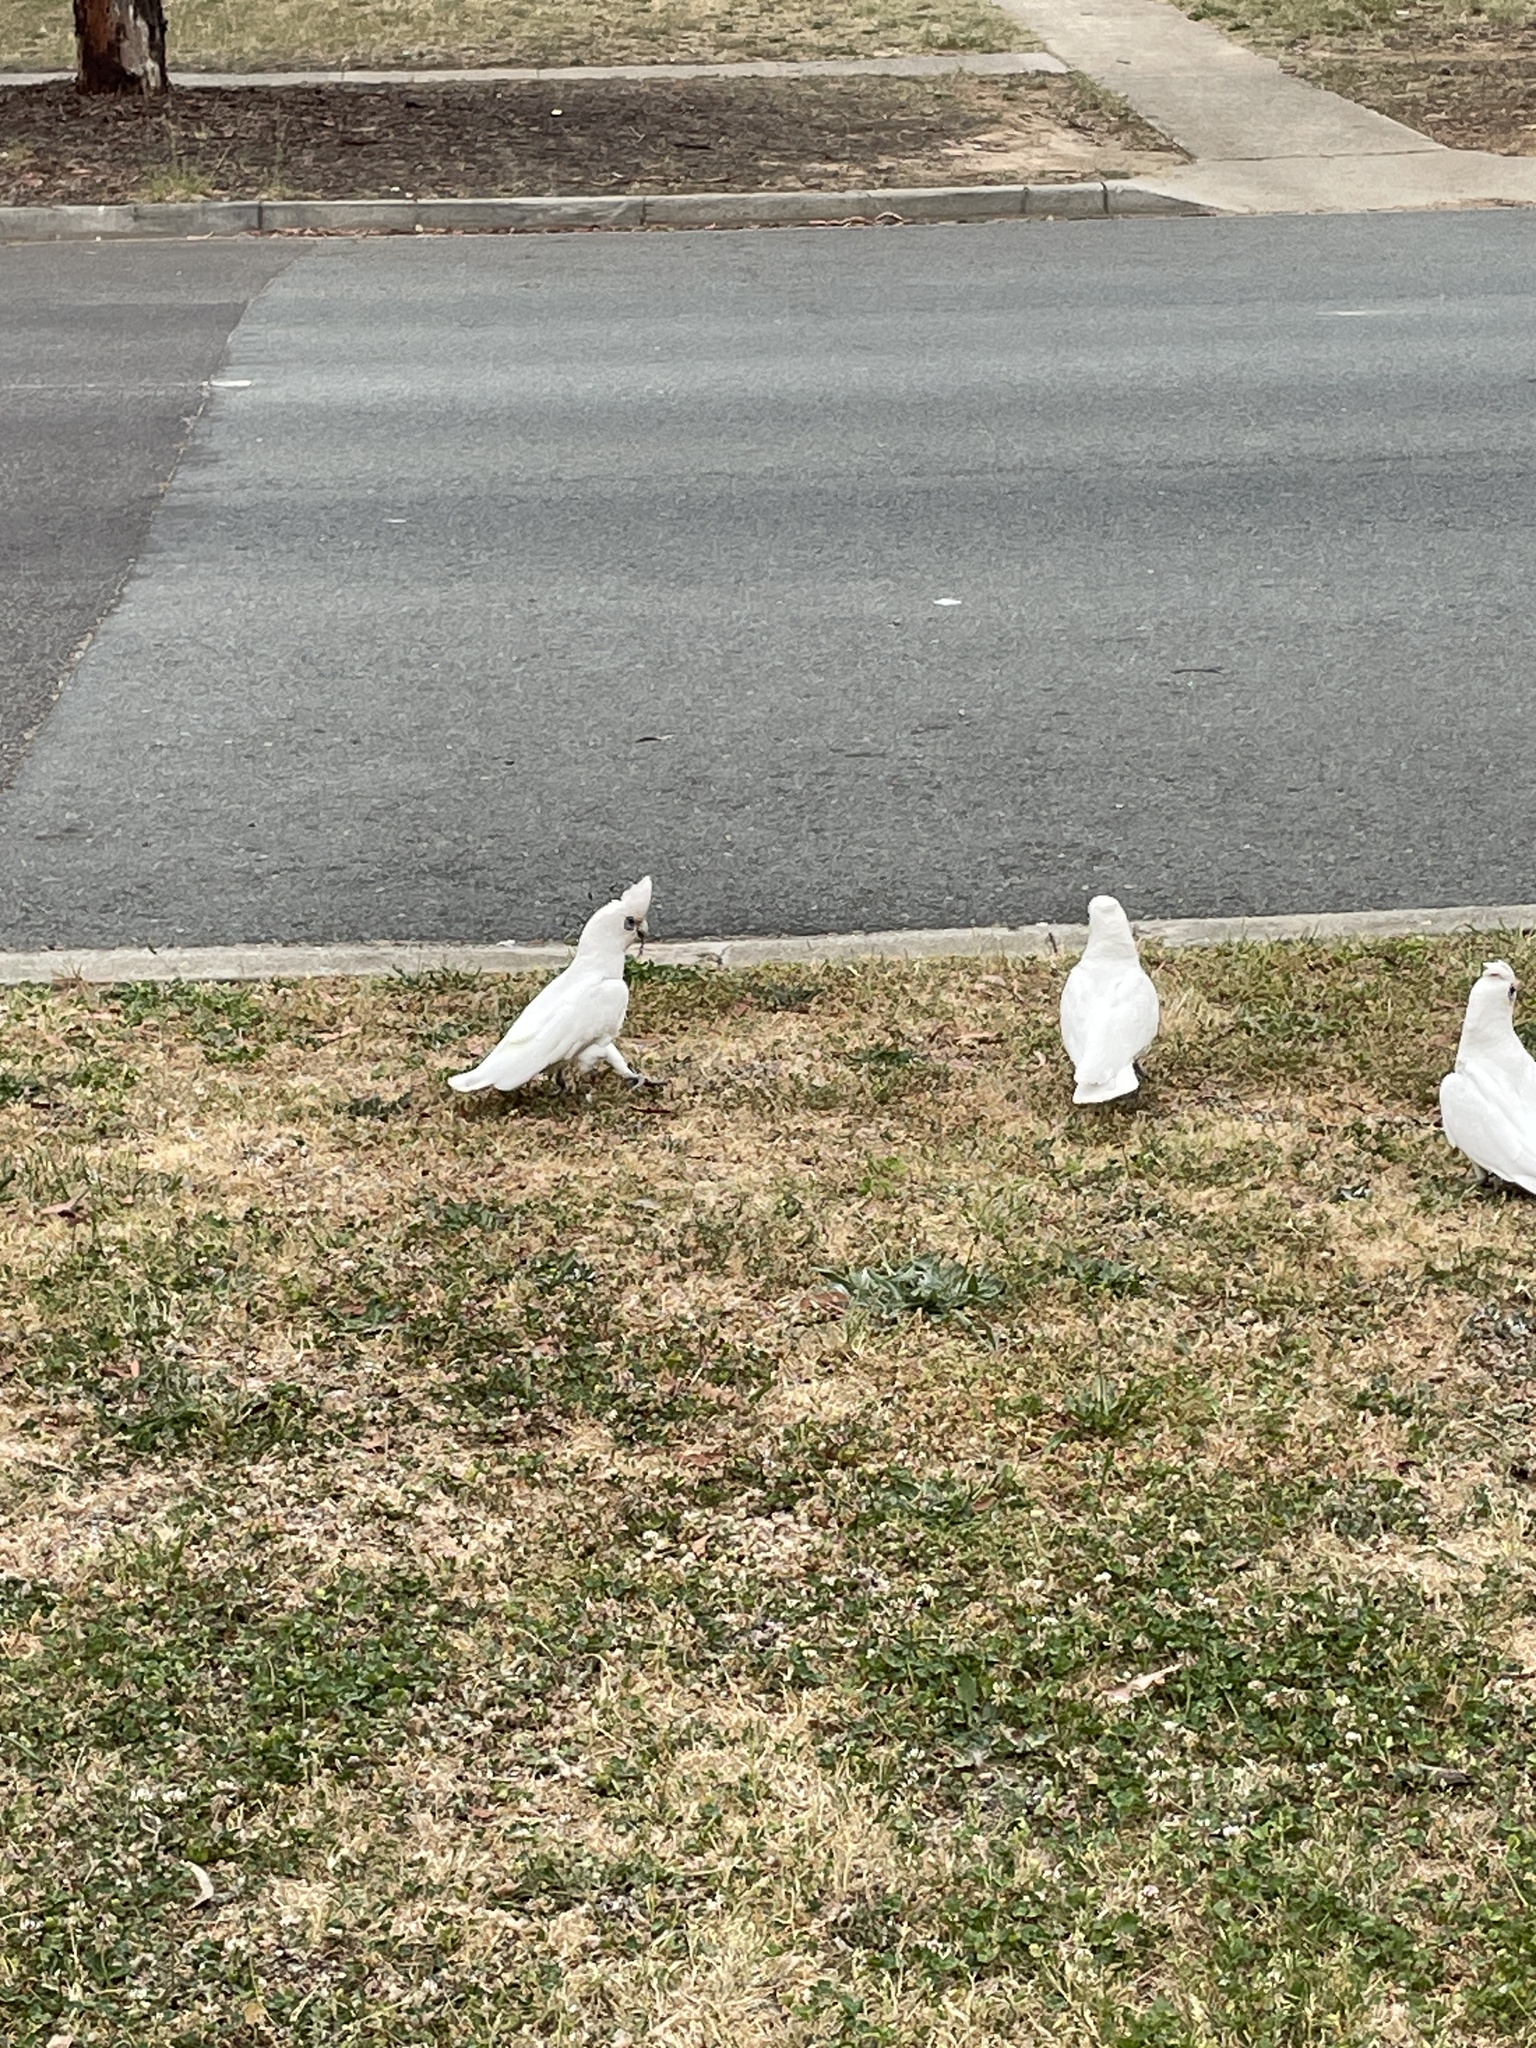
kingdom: Animalia
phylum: Chordata
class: Aves
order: Psittaciformes
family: Psittacidae
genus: Cacatua
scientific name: Cacatua sanguinea
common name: Little corella
